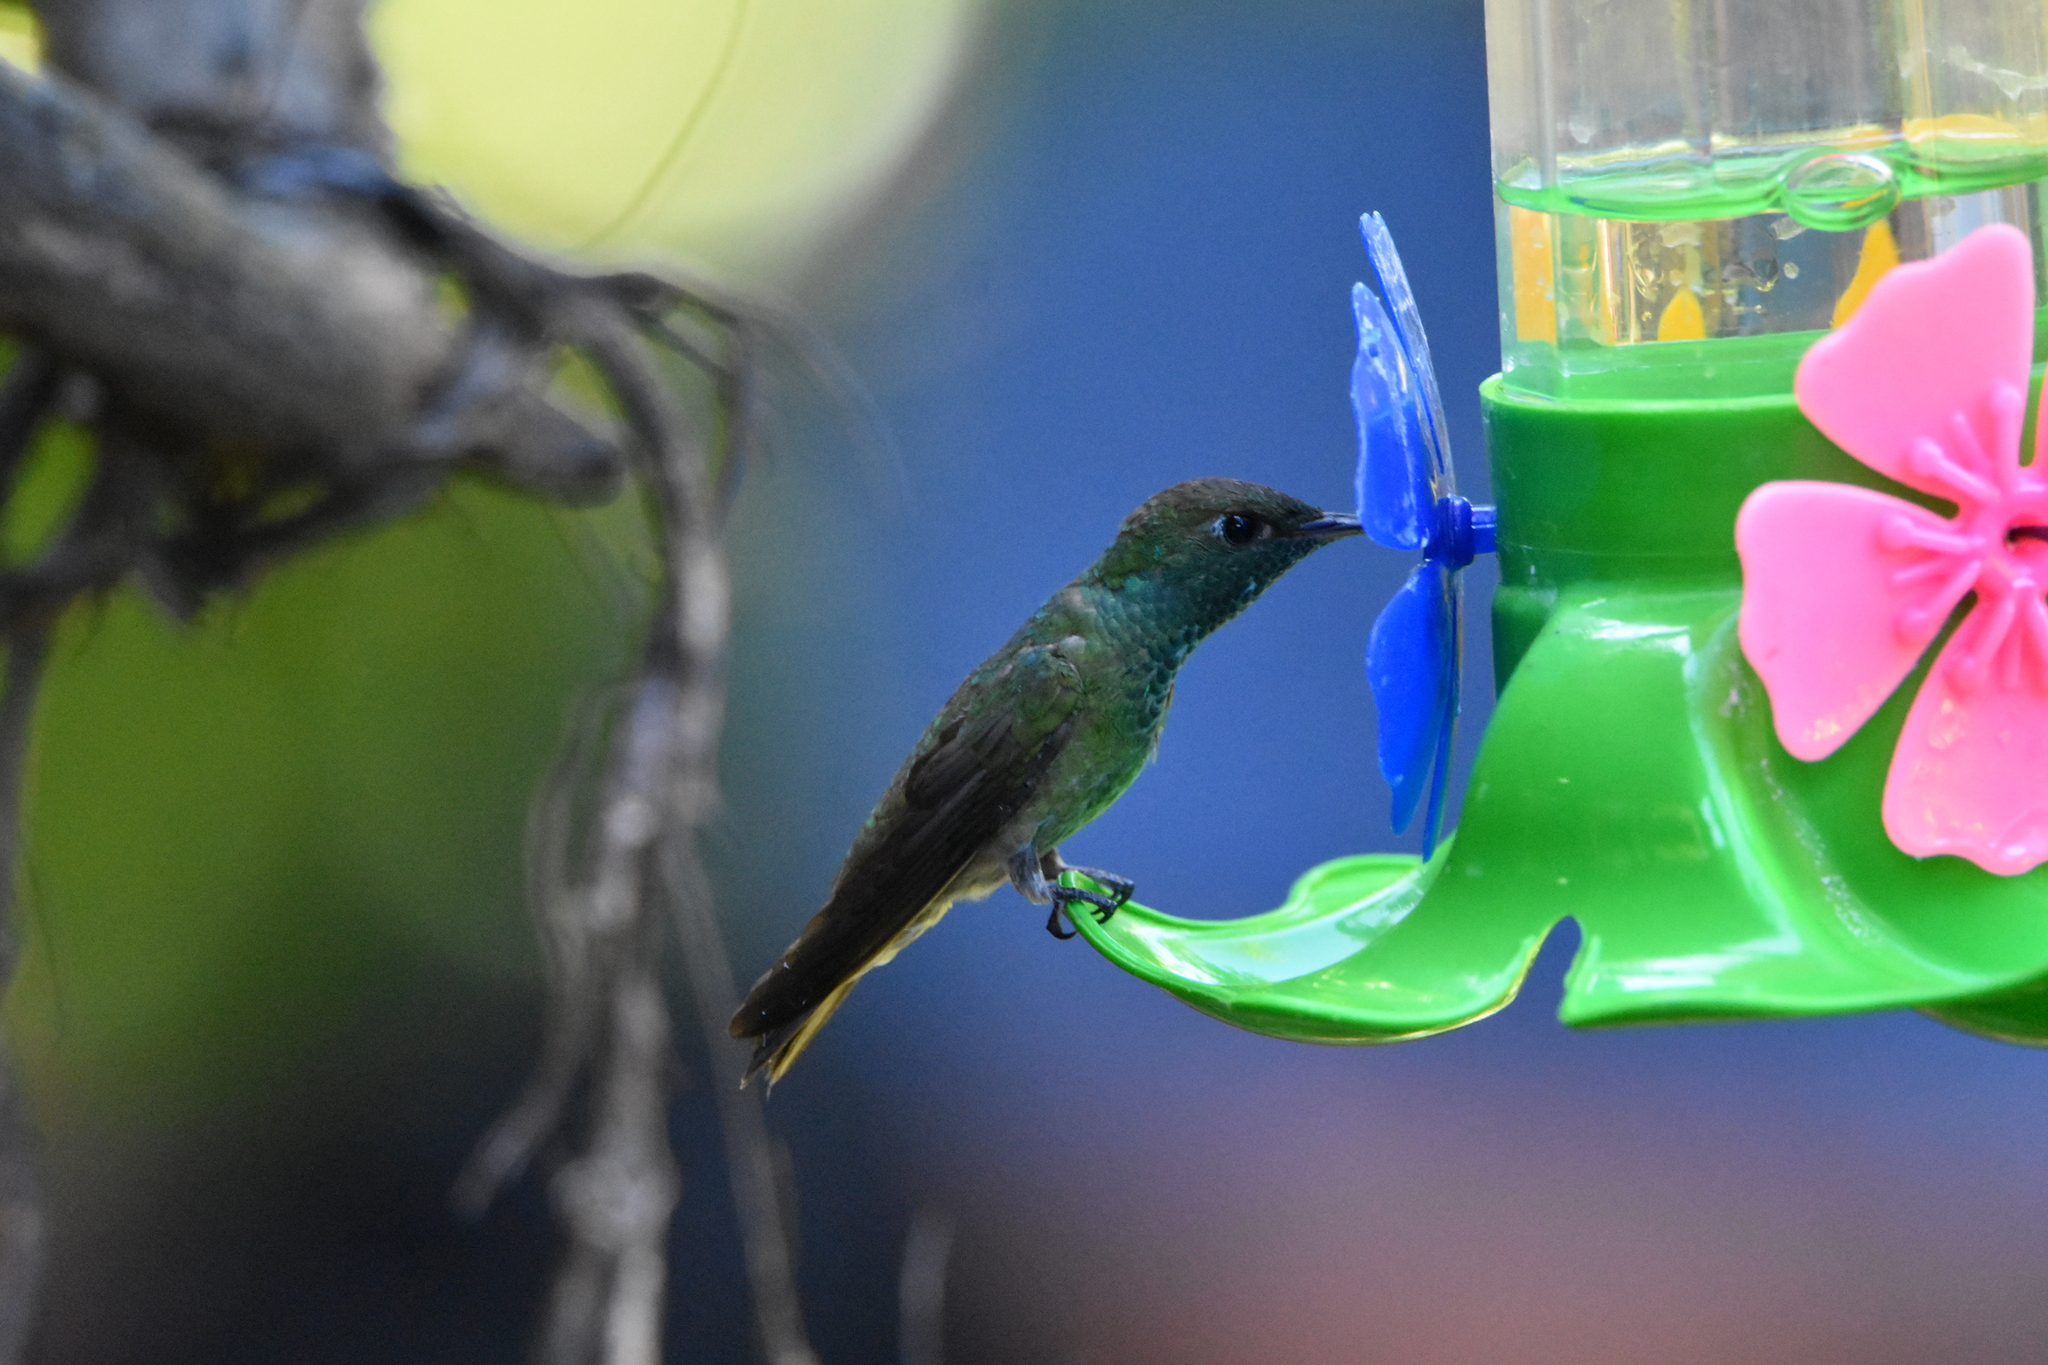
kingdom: Animalia
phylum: Chordata
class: Aves
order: Apodiformes
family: Trochilidae
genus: Chrysuronia
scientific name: Chrysuronia versicolor
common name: Versicolored emerald
